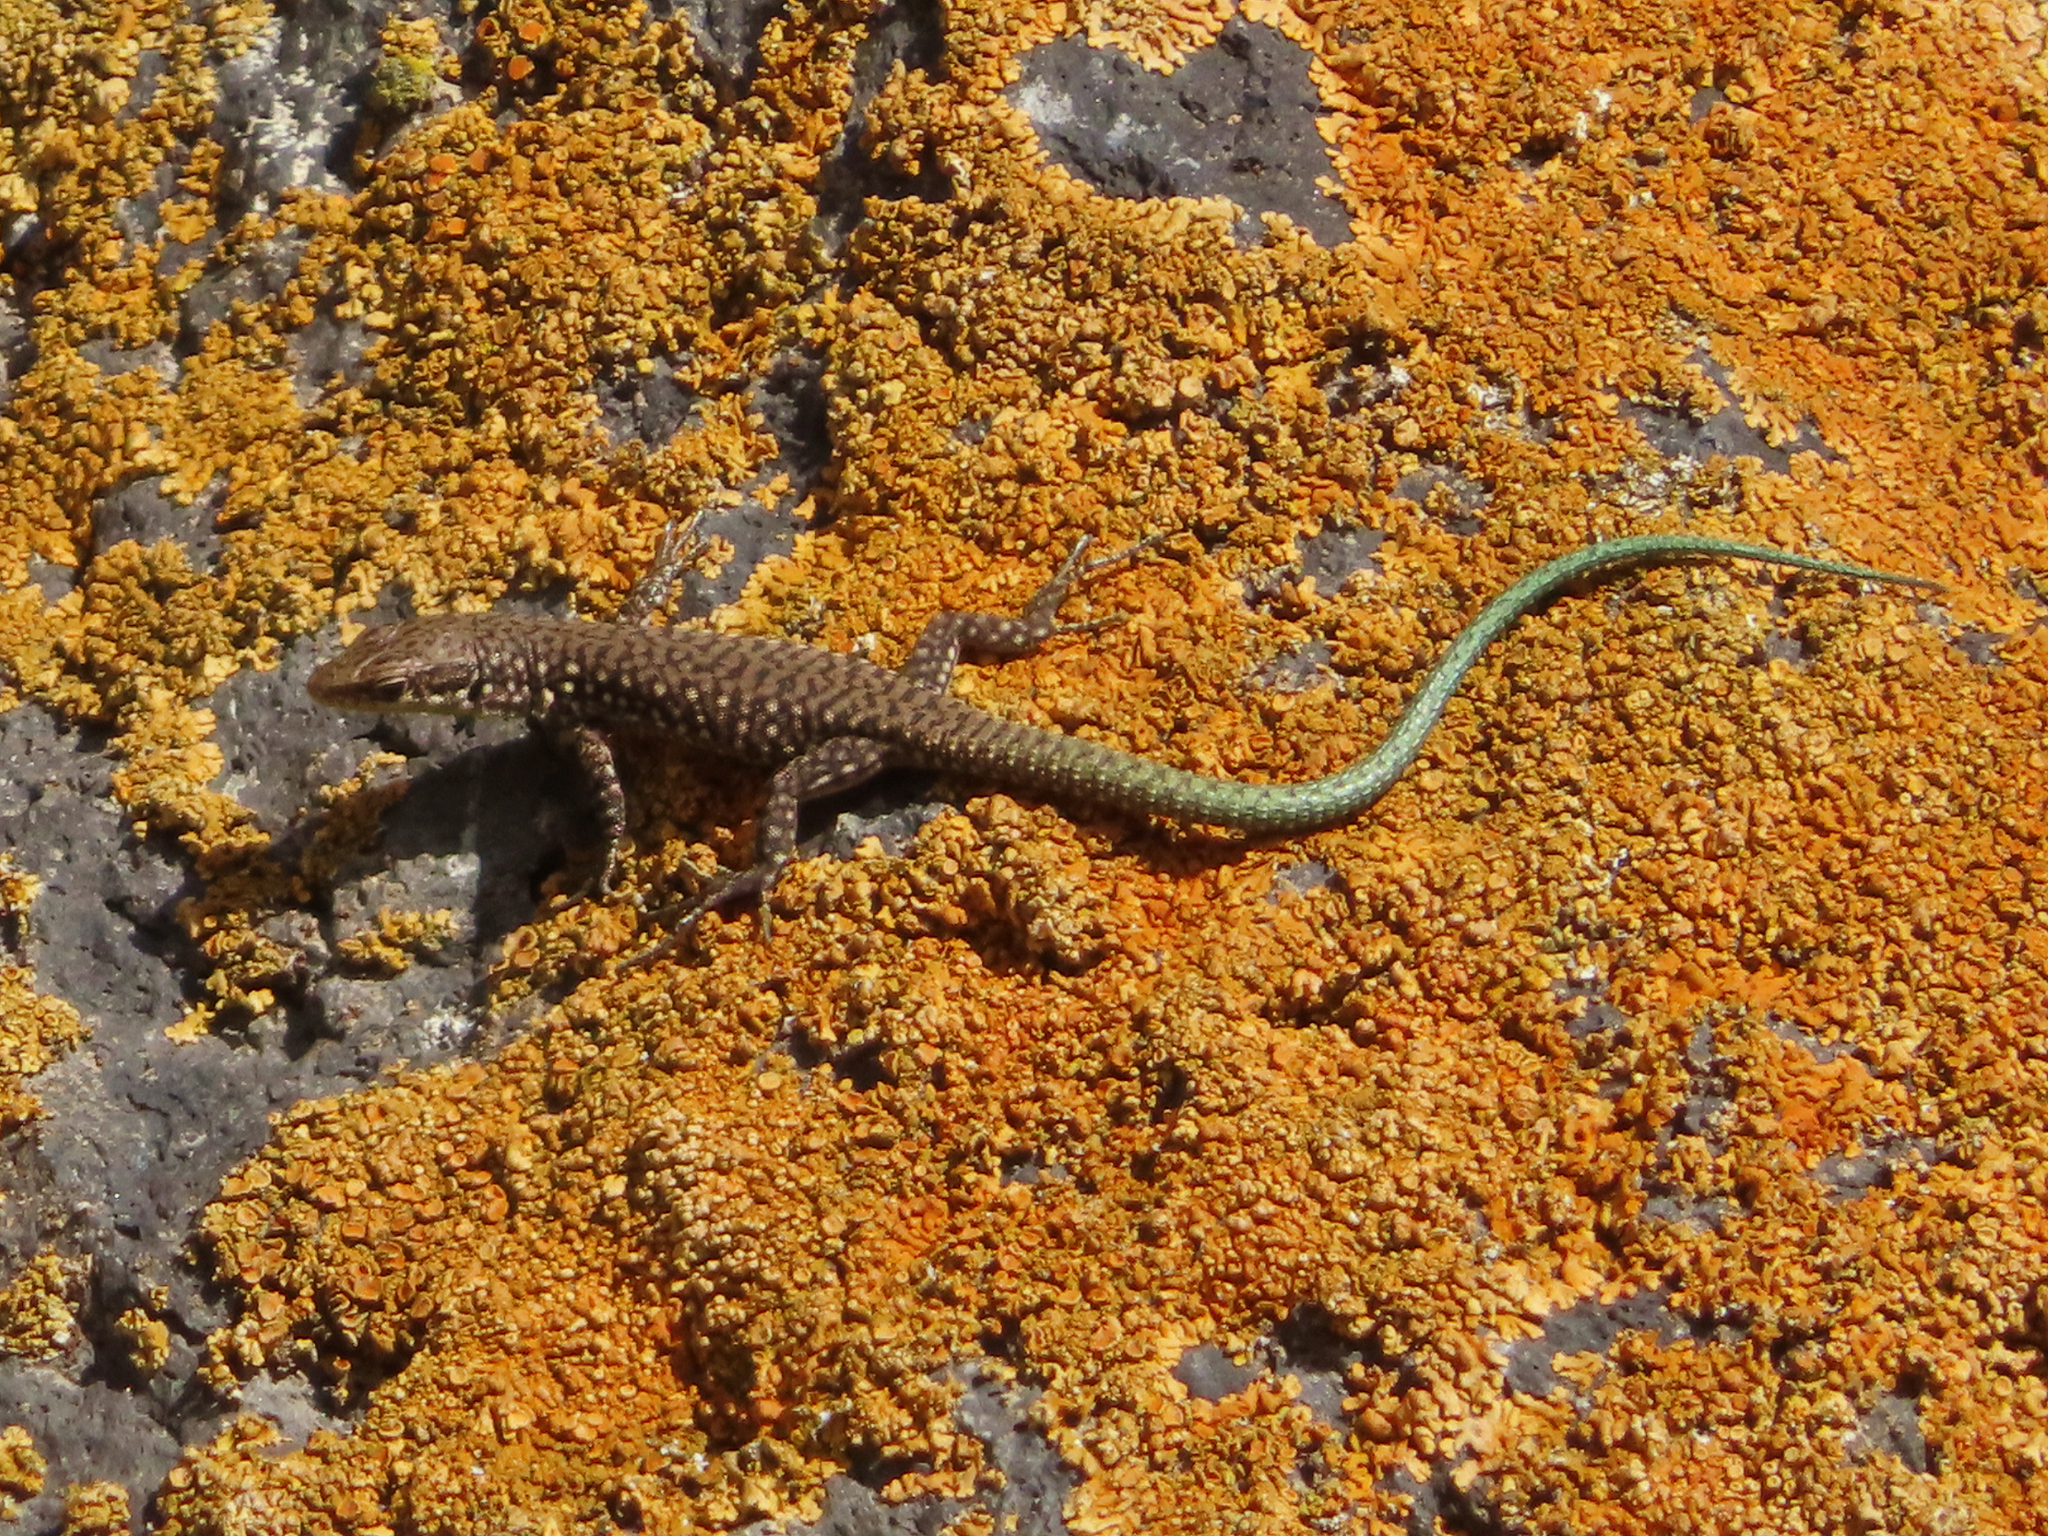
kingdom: Animalia
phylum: Chordata
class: Squamata
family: Lacertidae
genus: Darevskia
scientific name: Darevskia
